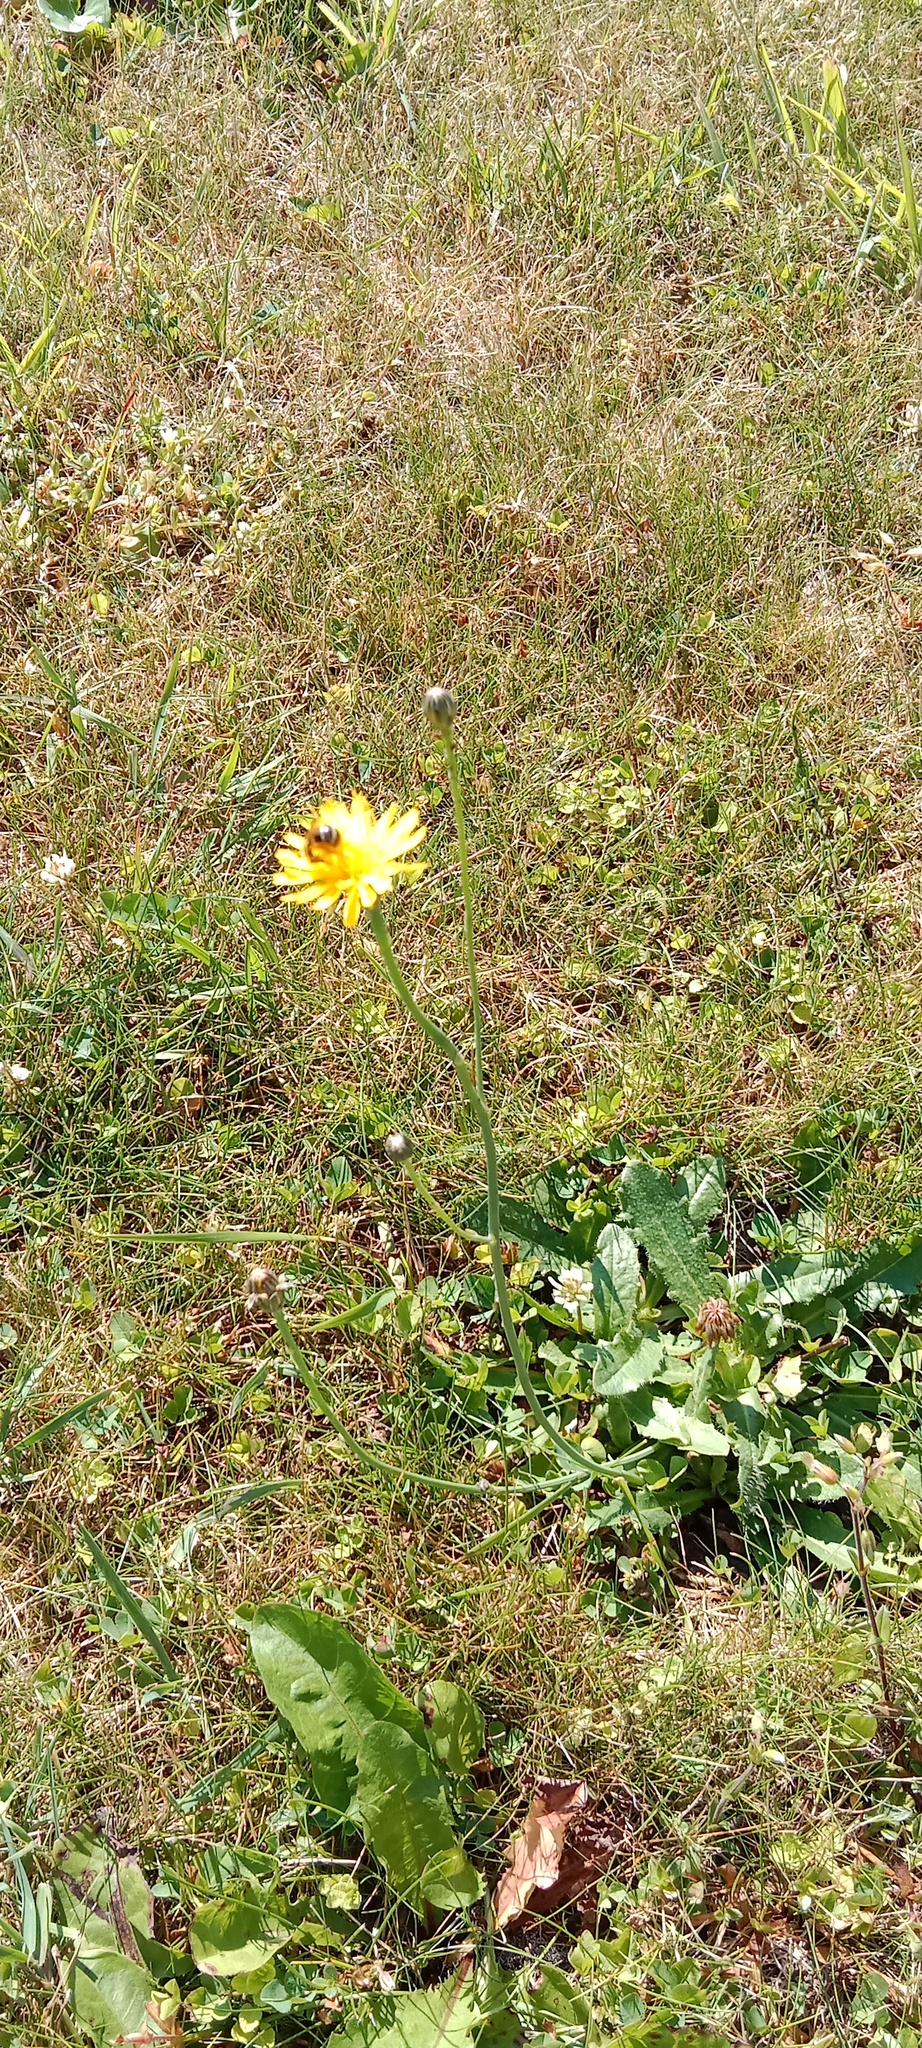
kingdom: Plantae
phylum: Tracheophyta
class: Magnoliopsida
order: Asterales
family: Asteraceae
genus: Hypochaeris
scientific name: Hypochaeris radicata
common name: Flatweed
